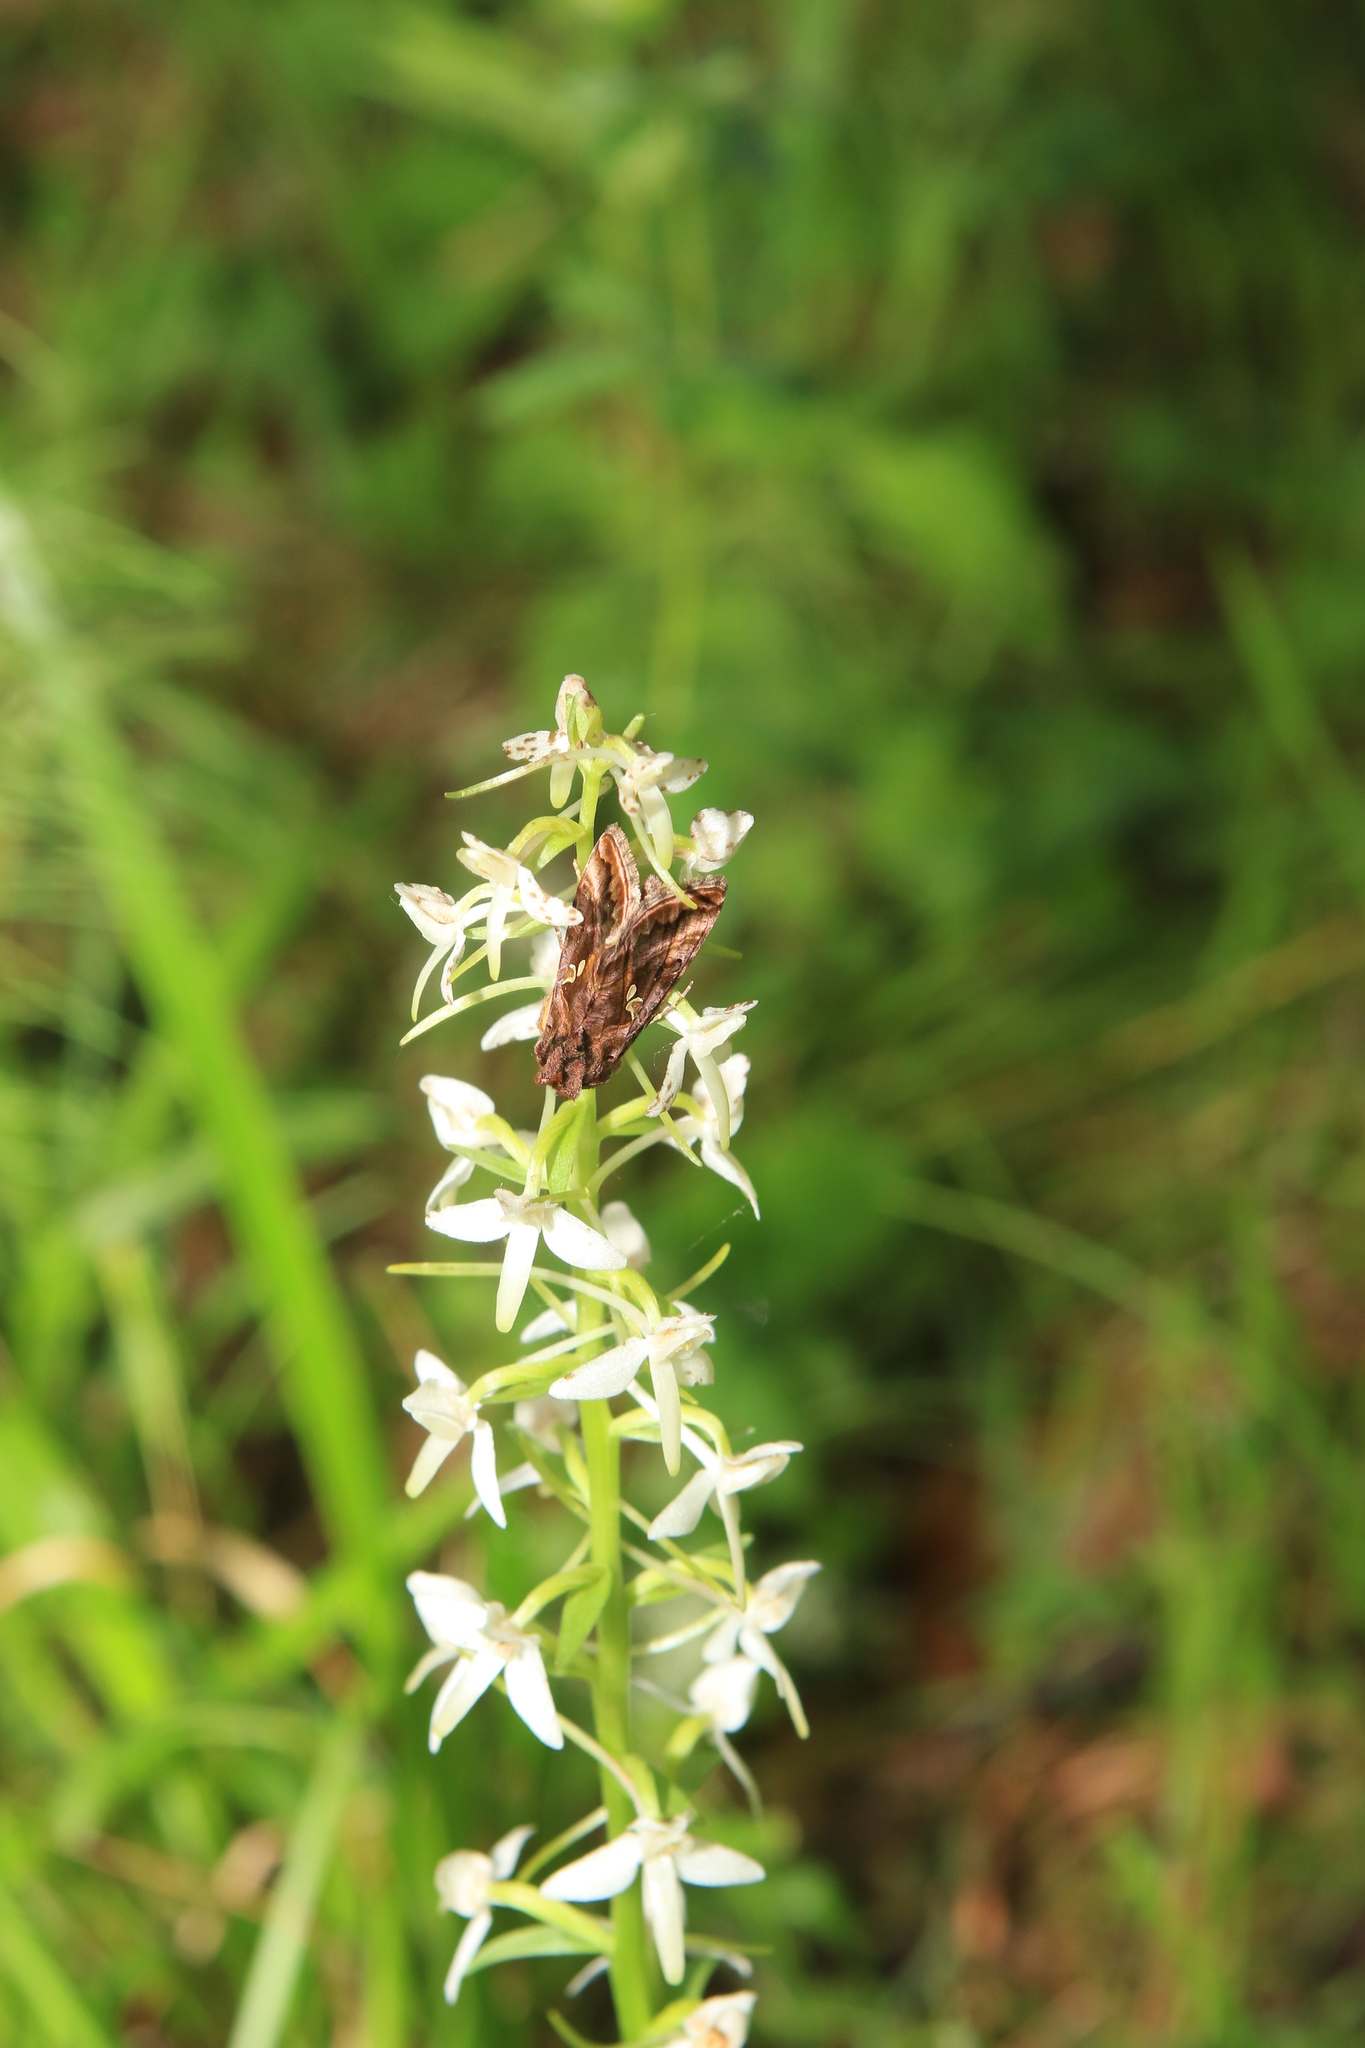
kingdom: Plantae
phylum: Tracheophyta
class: Liliopsida
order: Asparagales
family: Orchidaceae
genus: Platanthera
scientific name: Platanthera bifolia
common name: Lesser butterfly-orchid
